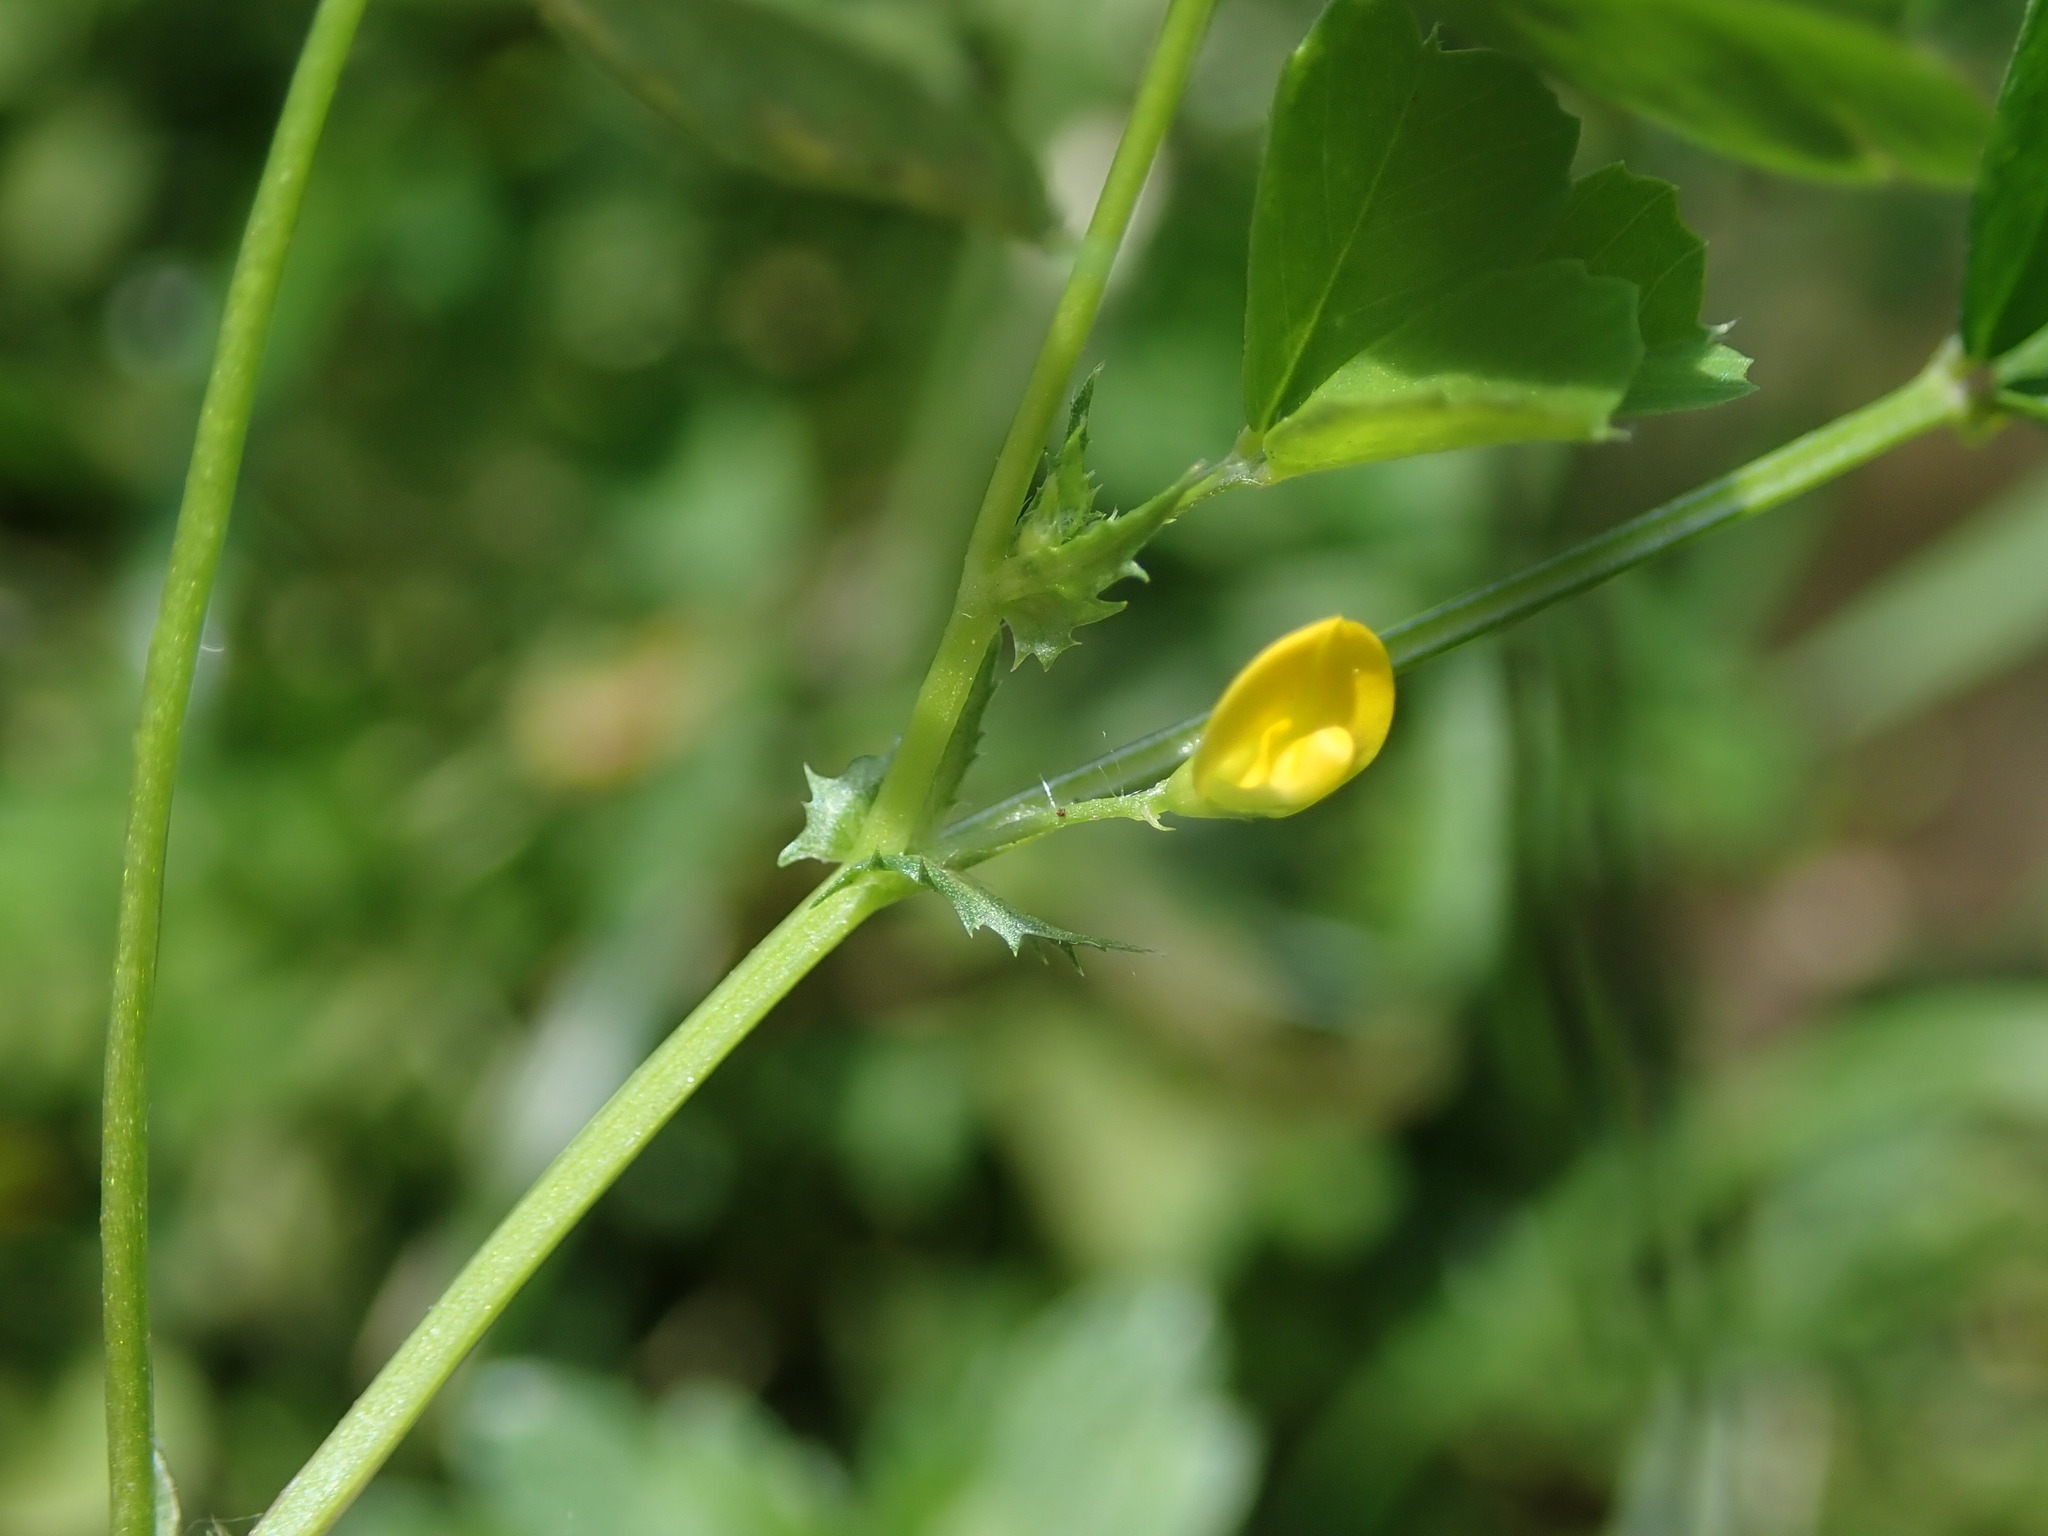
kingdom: Plantae
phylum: Tracheophyta
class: Magnoliopsida
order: Fabales
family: Fabaceae
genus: Medicago
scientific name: Medicago arabica
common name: Spotted medick
